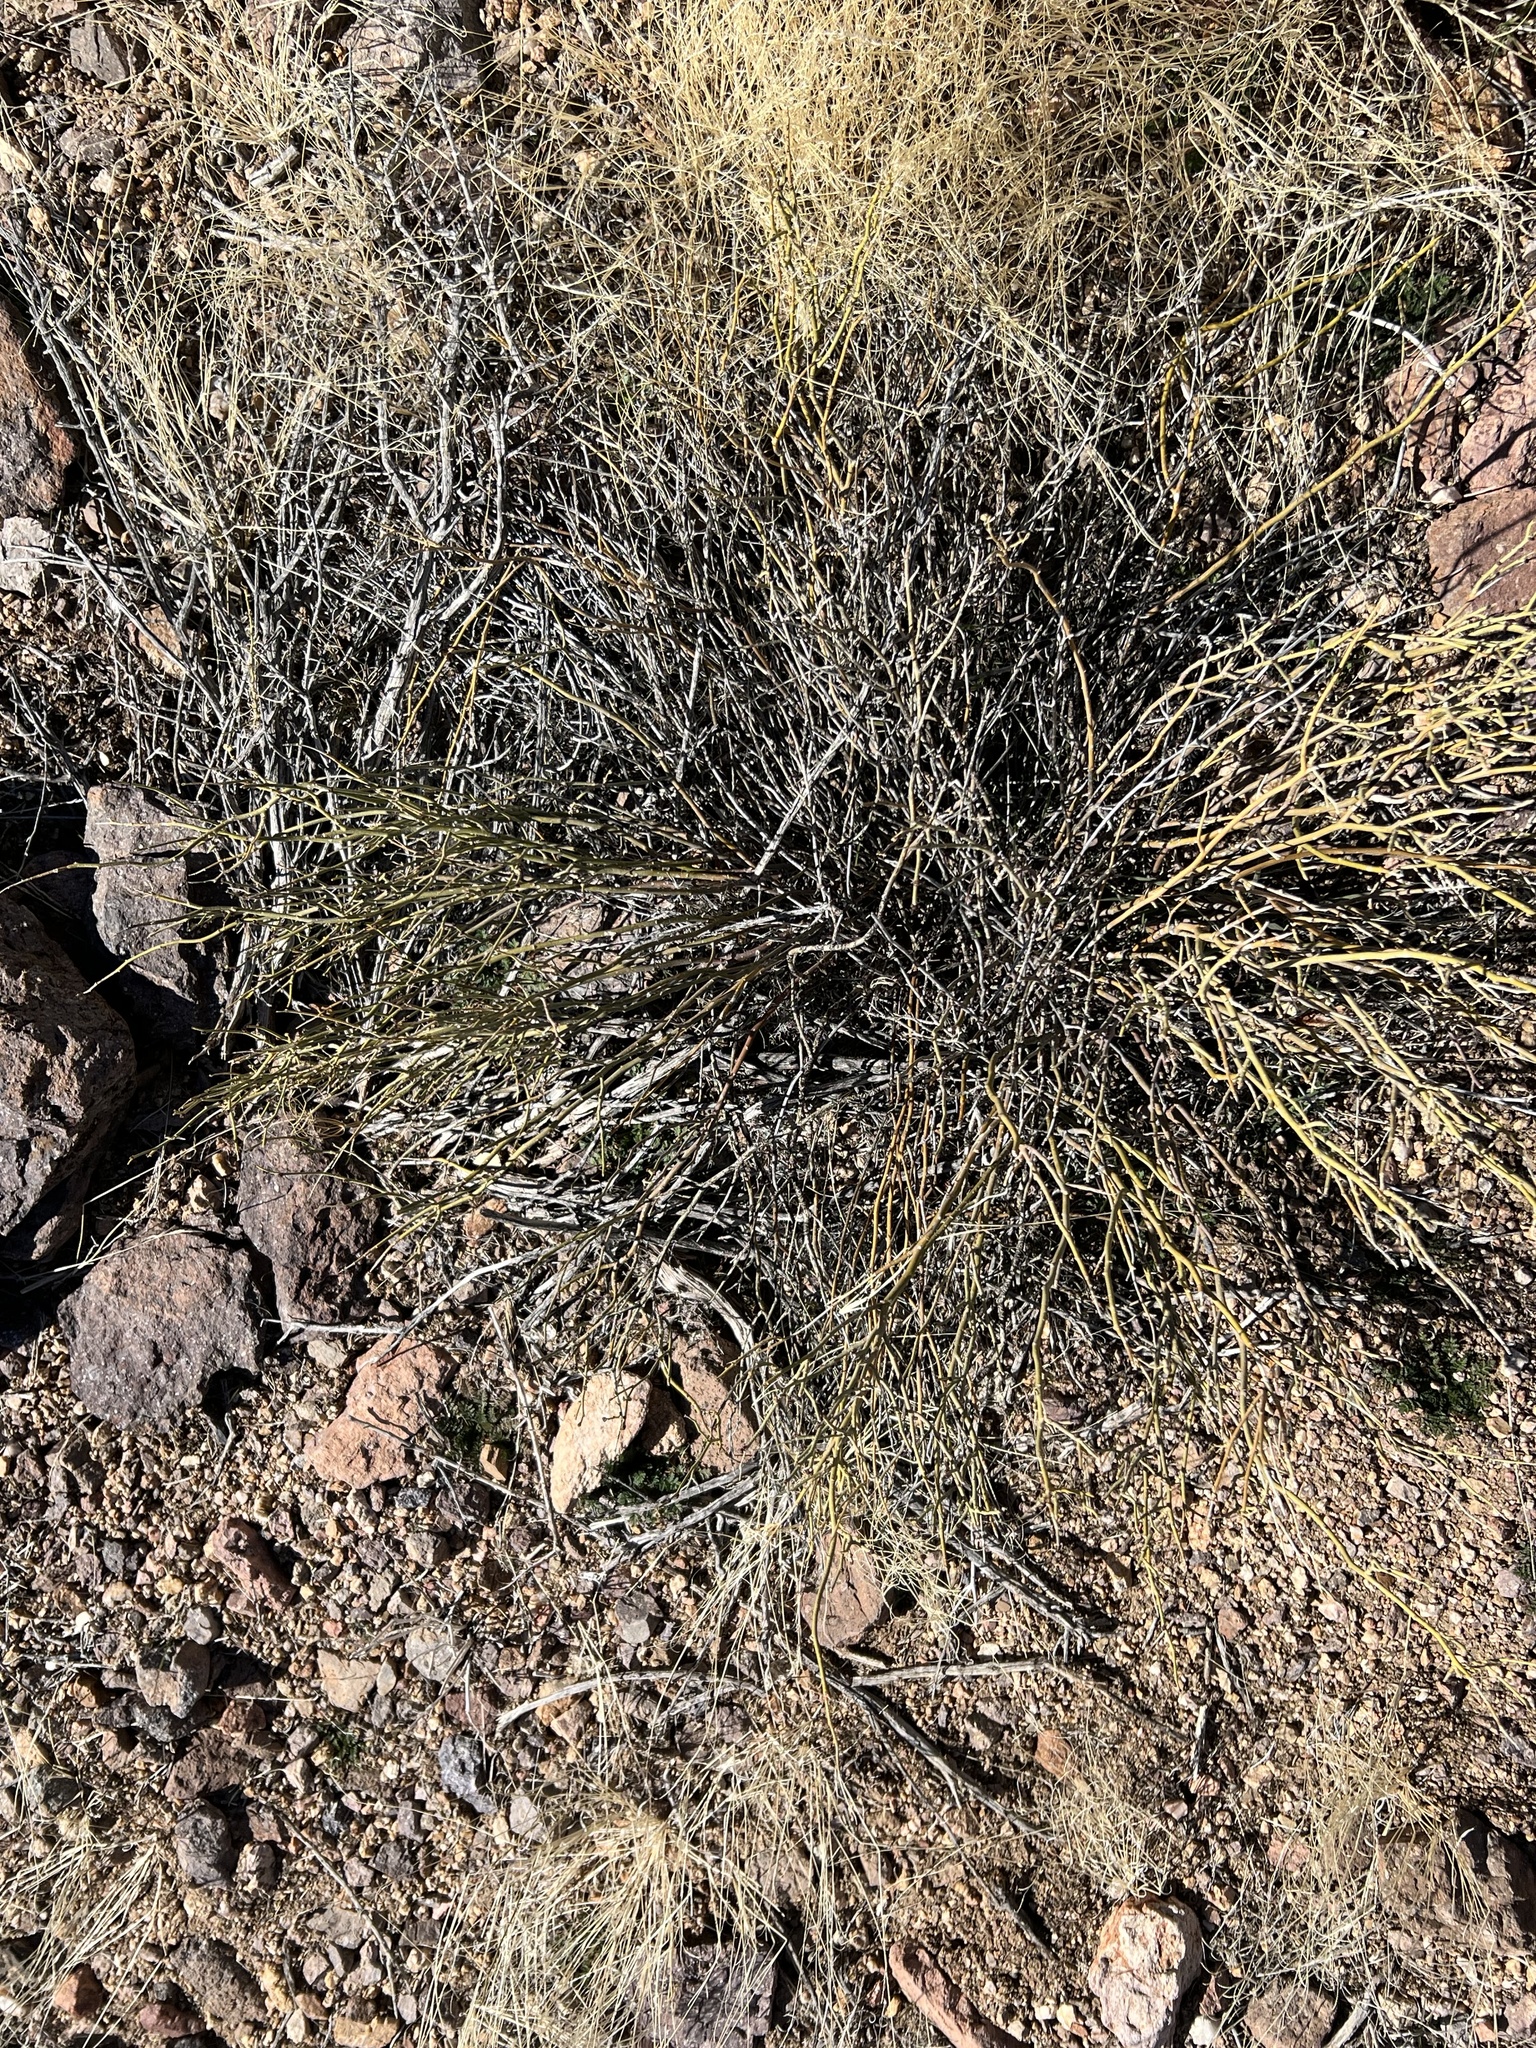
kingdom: Plantae
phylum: Tracheophyta
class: Magnoliopsida
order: Sapindales
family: Rutaceae
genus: Thamnosma
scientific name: Thamnosma montana
